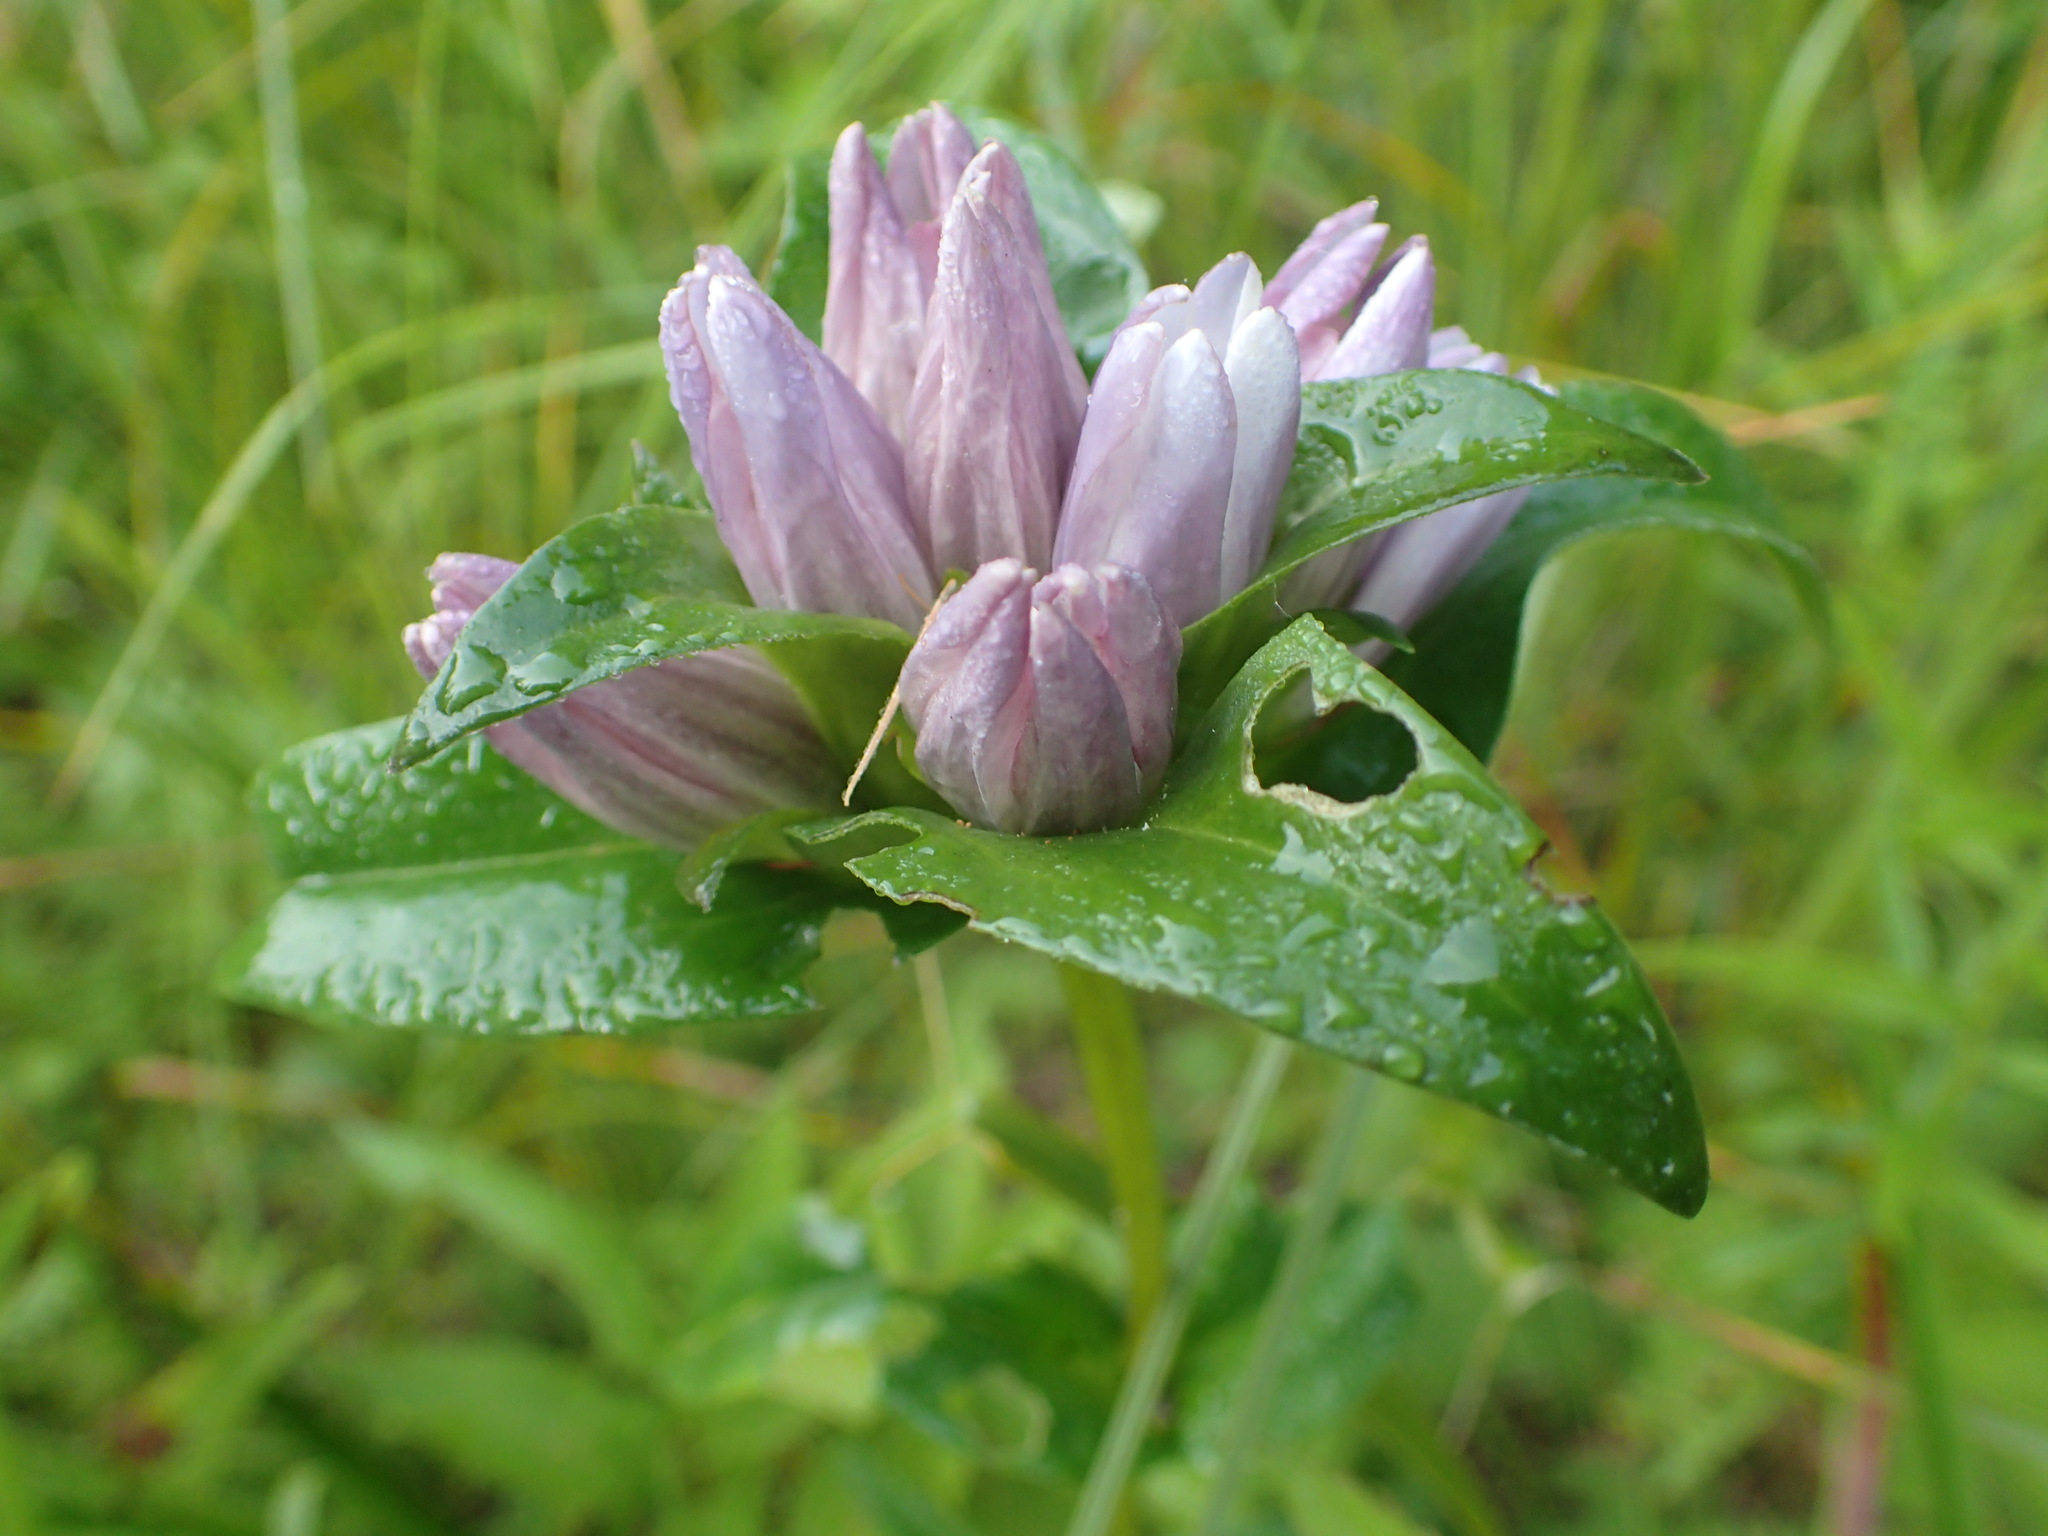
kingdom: Plantae
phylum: Tracheophyta
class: Magnoliopsida
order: Gentianales
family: Gentianaceae
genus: Gentiana
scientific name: Gentiana rubricaulis
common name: Purple-stemmed gentian
